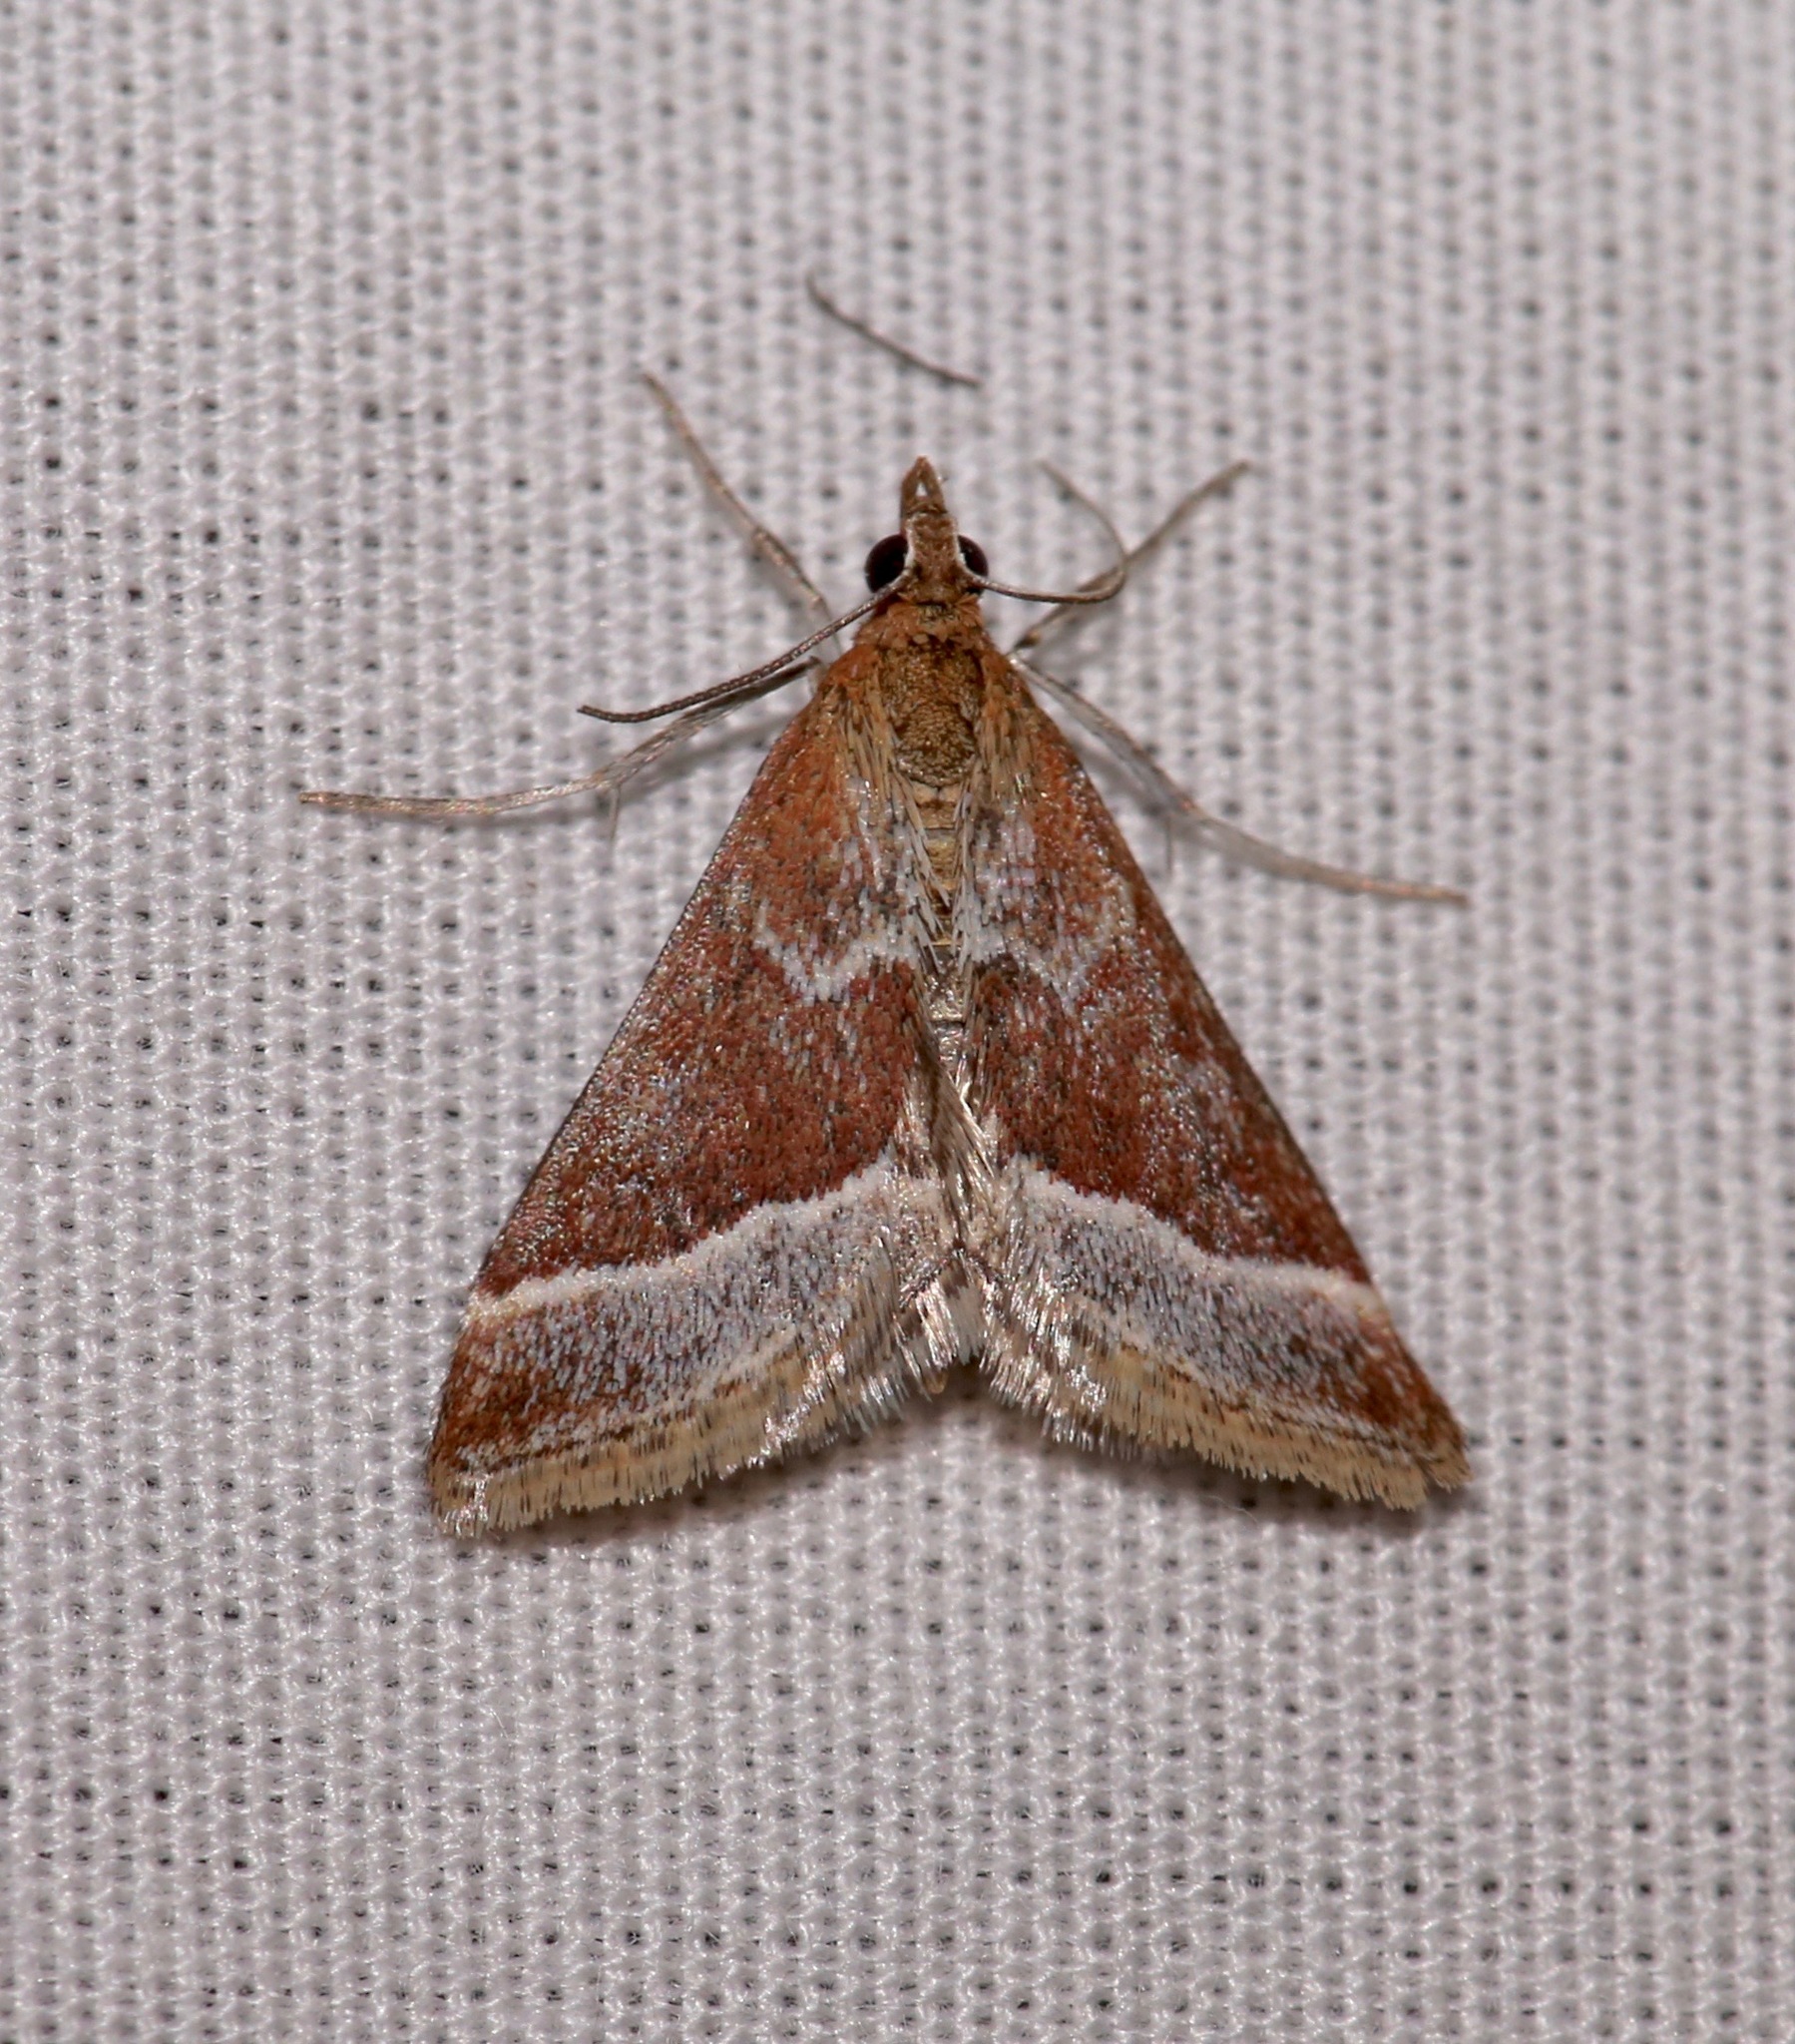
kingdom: Animalia
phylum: Arthropoda
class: Insecta
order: Lepidoptera
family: Crambidae
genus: Pyrausta
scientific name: Pyrausta lethalis
